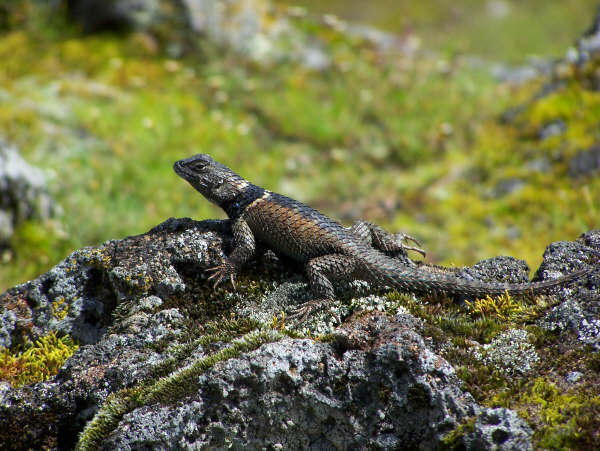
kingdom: Animalia
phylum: Chordata
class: Squamata
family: Phrynosomatidae
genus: Sceloporus
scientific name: Sceloporus mucronatus
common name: Central cleft lizard
